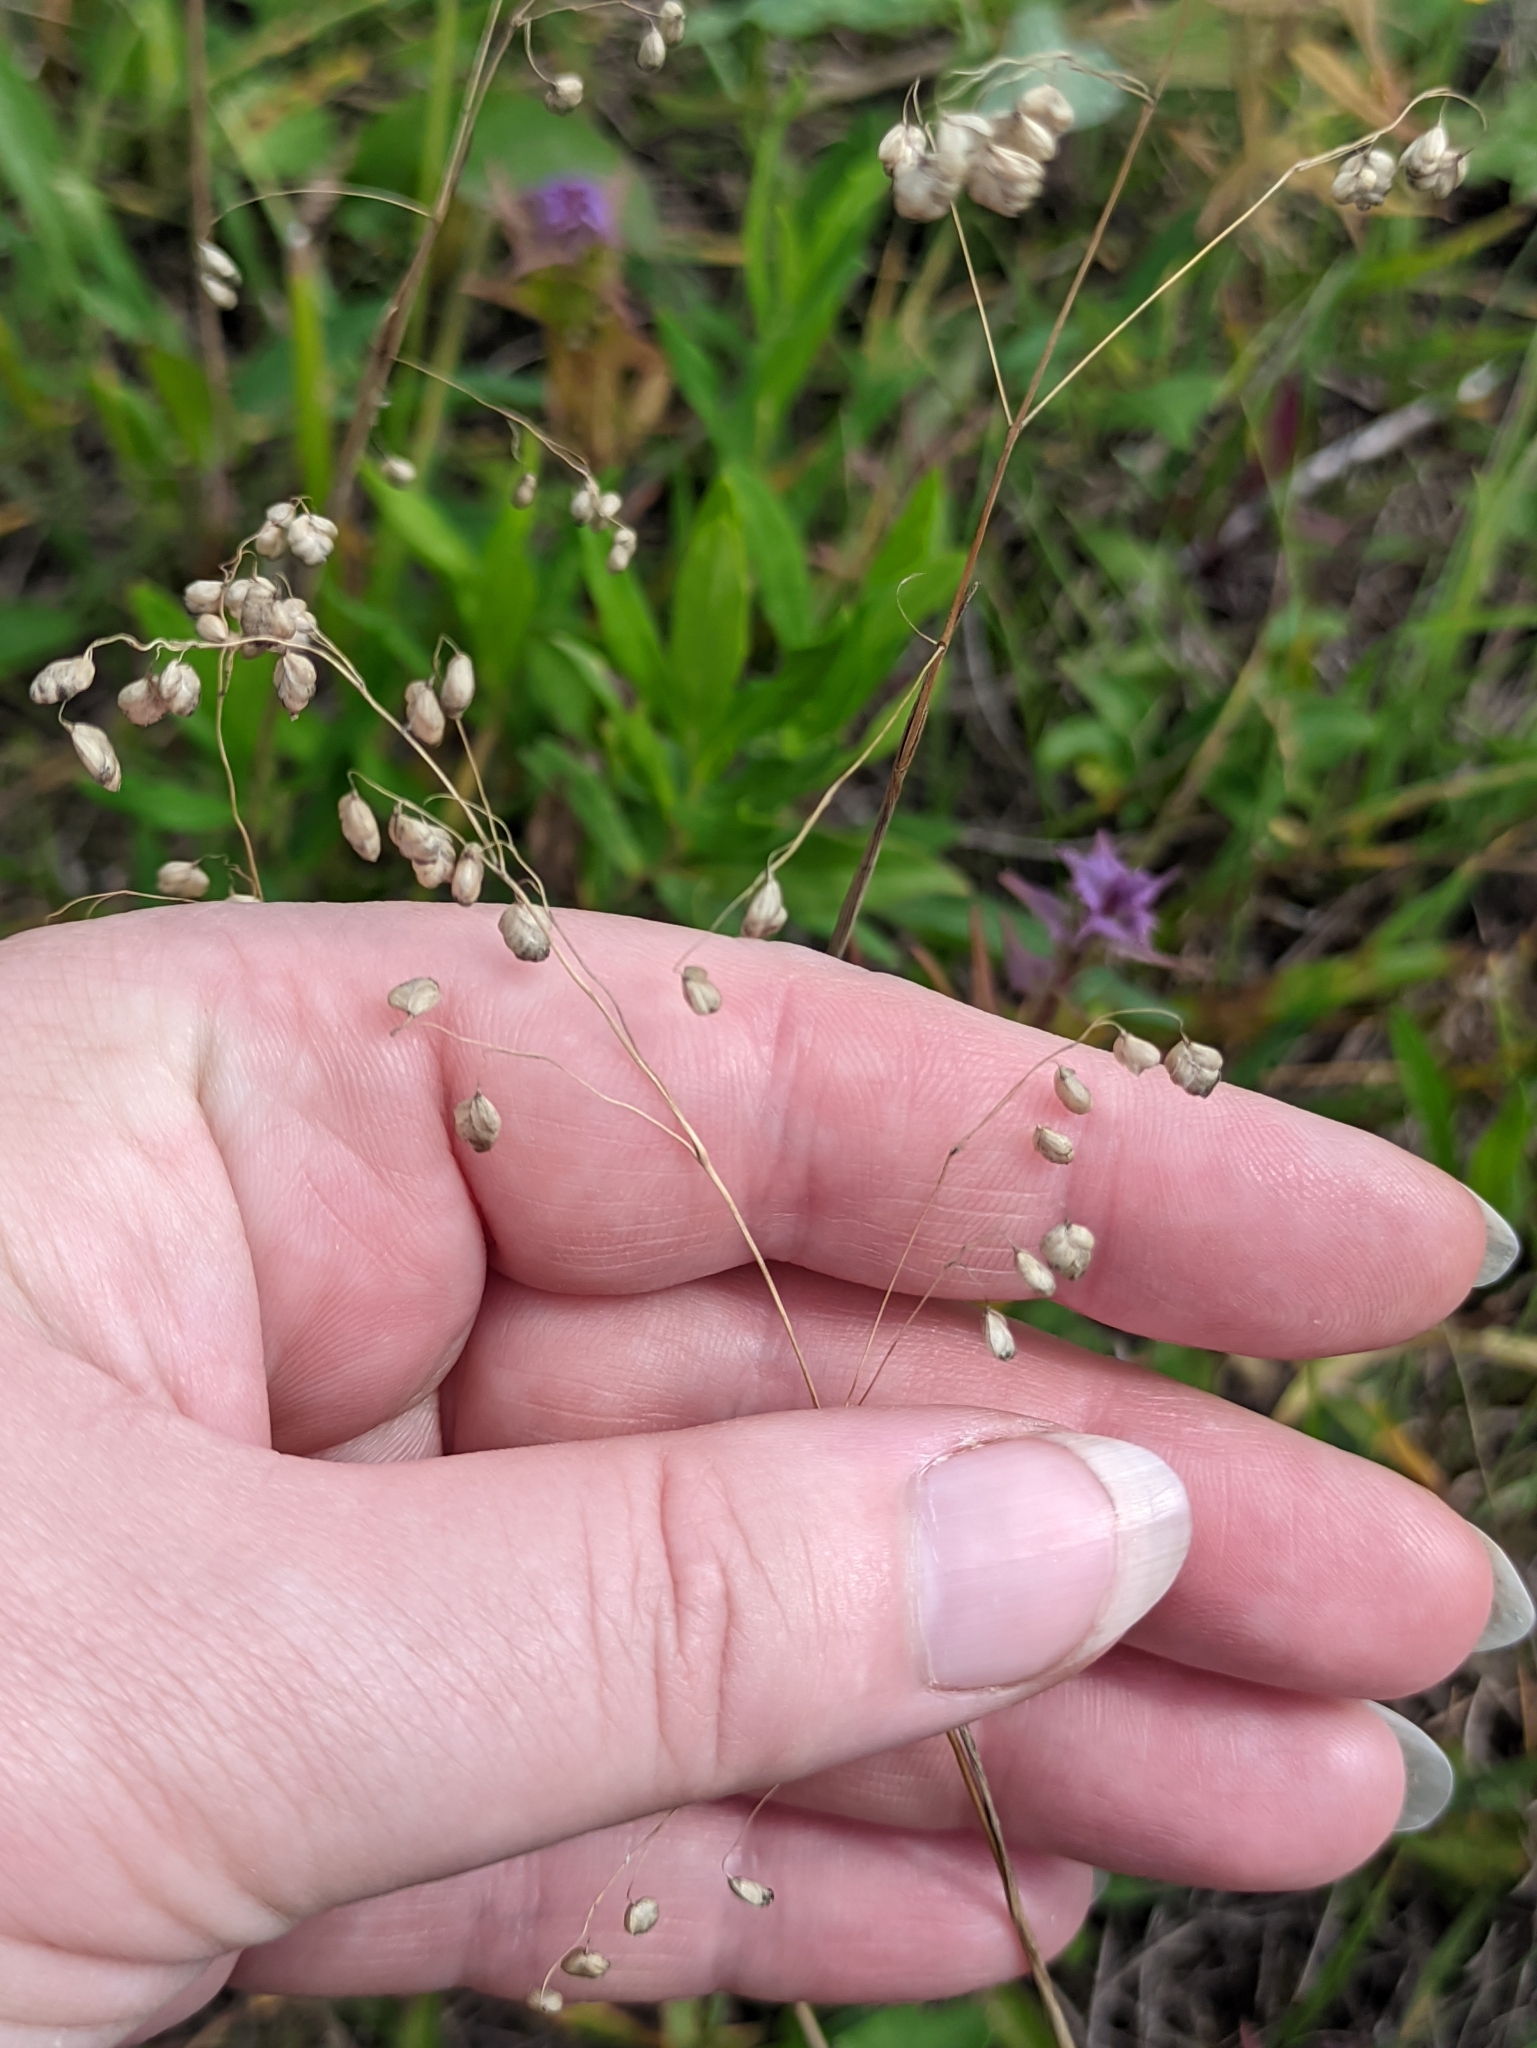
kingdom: Plantae
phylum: Tracheophyta
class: Liliopsida
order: Poales
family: Poaceae
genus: Briza
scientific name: Briza media
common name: Quaking grass
